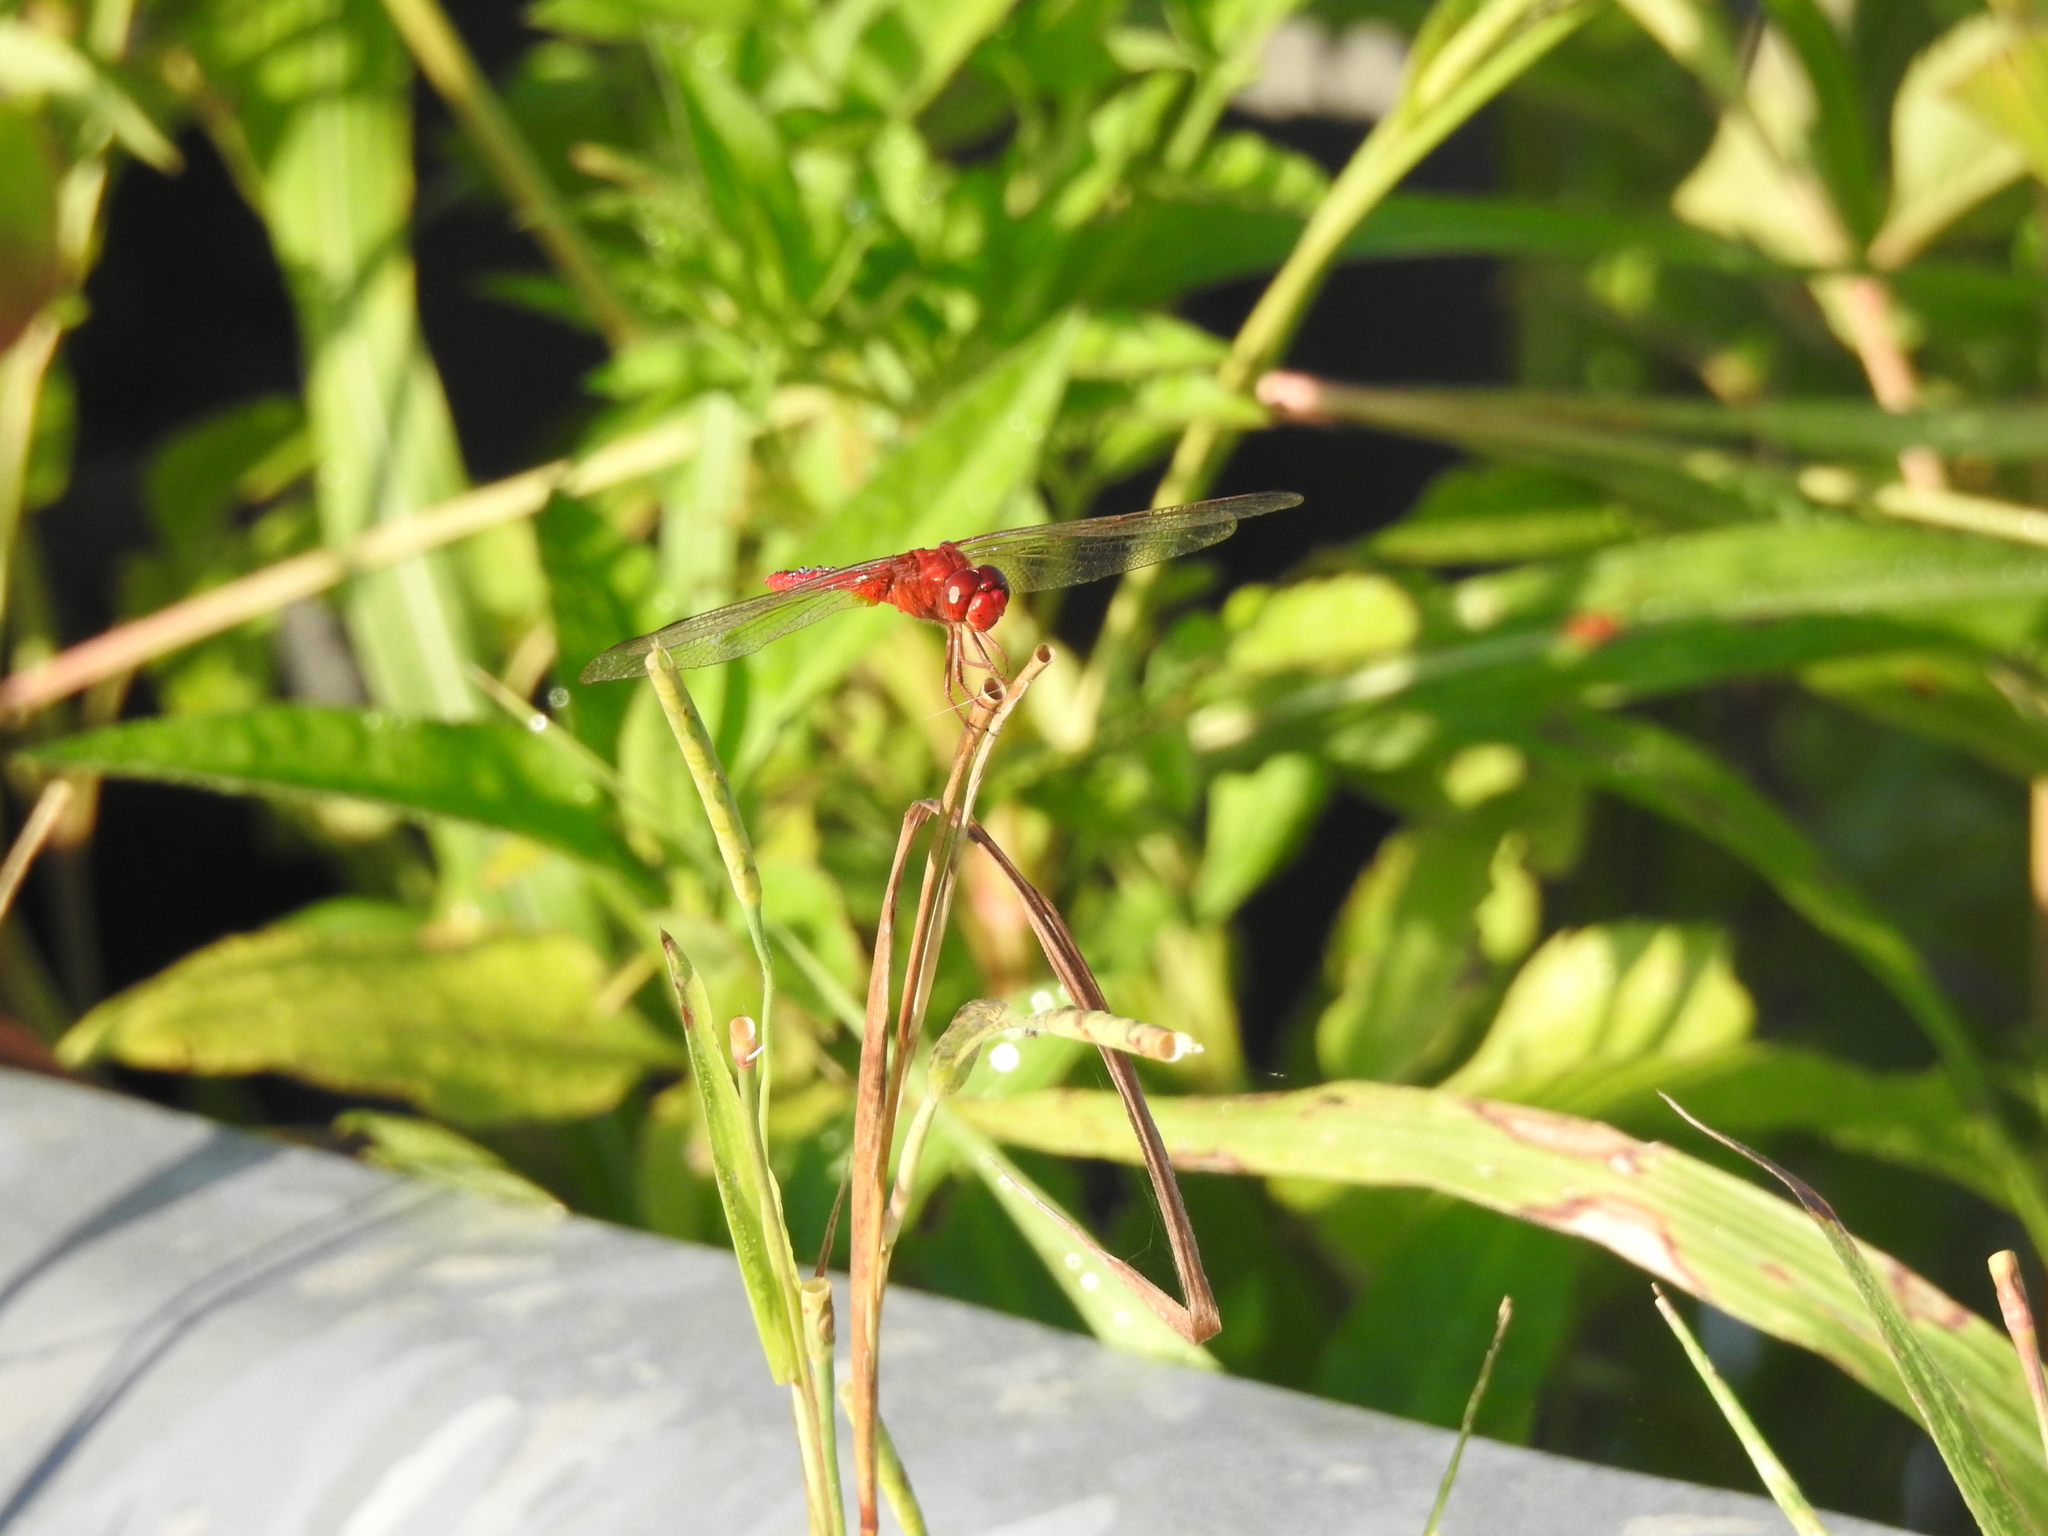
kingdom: Animalia
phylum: Arthropoda
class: Insecta
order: Odonata
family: Libellulidae
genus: Crocothemis
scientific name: Crocothemis servilia
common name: Scarlet skimmer
